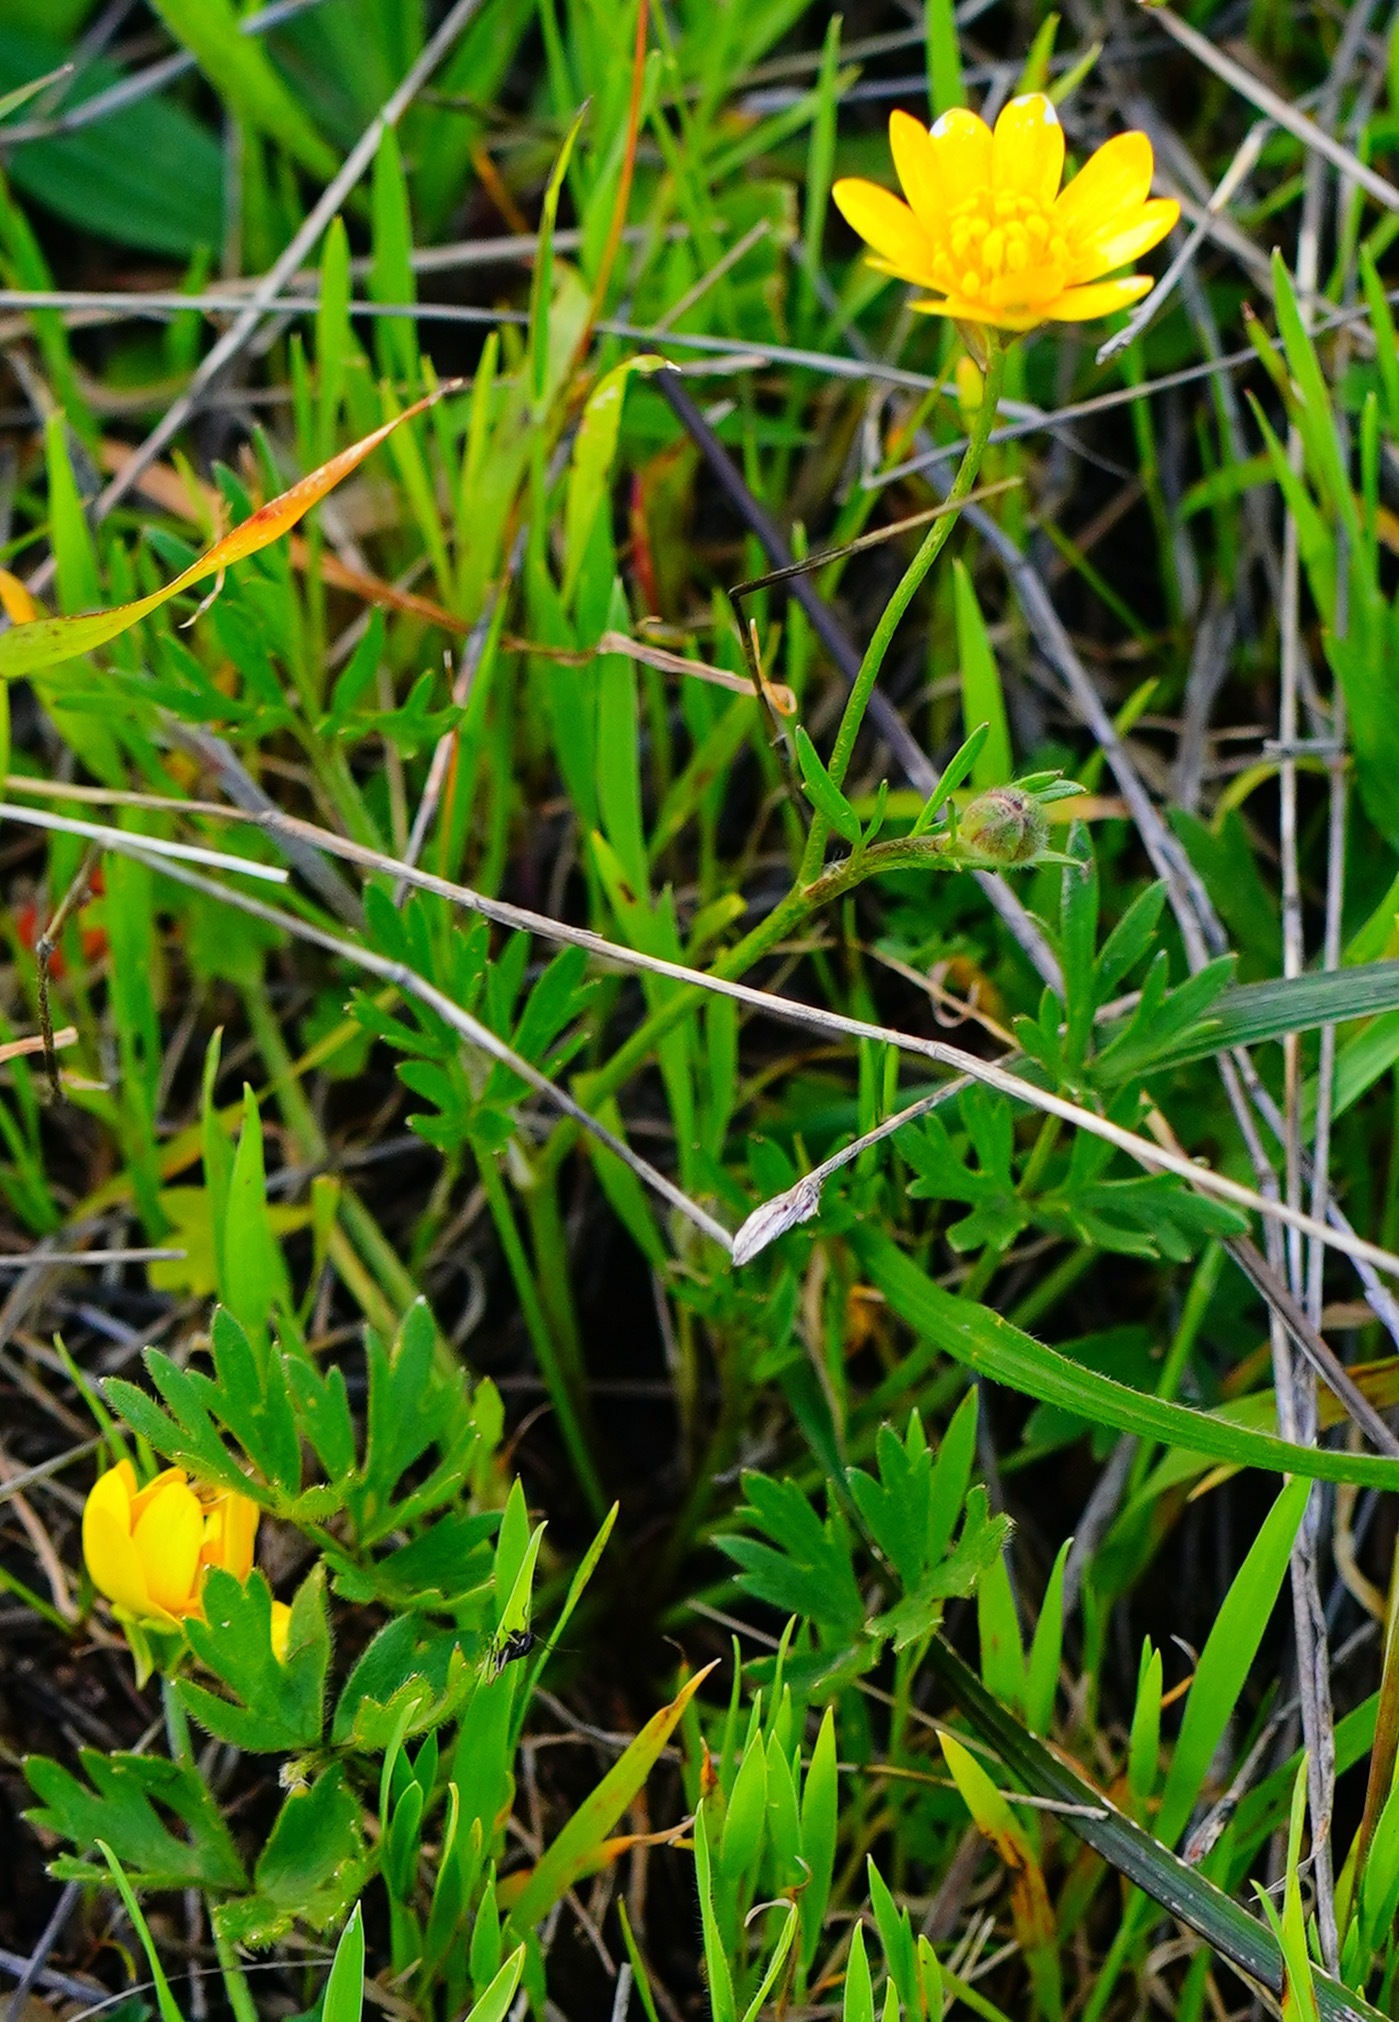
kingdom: Plantae
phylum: Tracheophyta
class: Magnoliopsida
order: Ranunculales
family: Ranunculaceae
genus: Ranunculus
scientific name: Ranunculus californicus
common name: California buttercup
